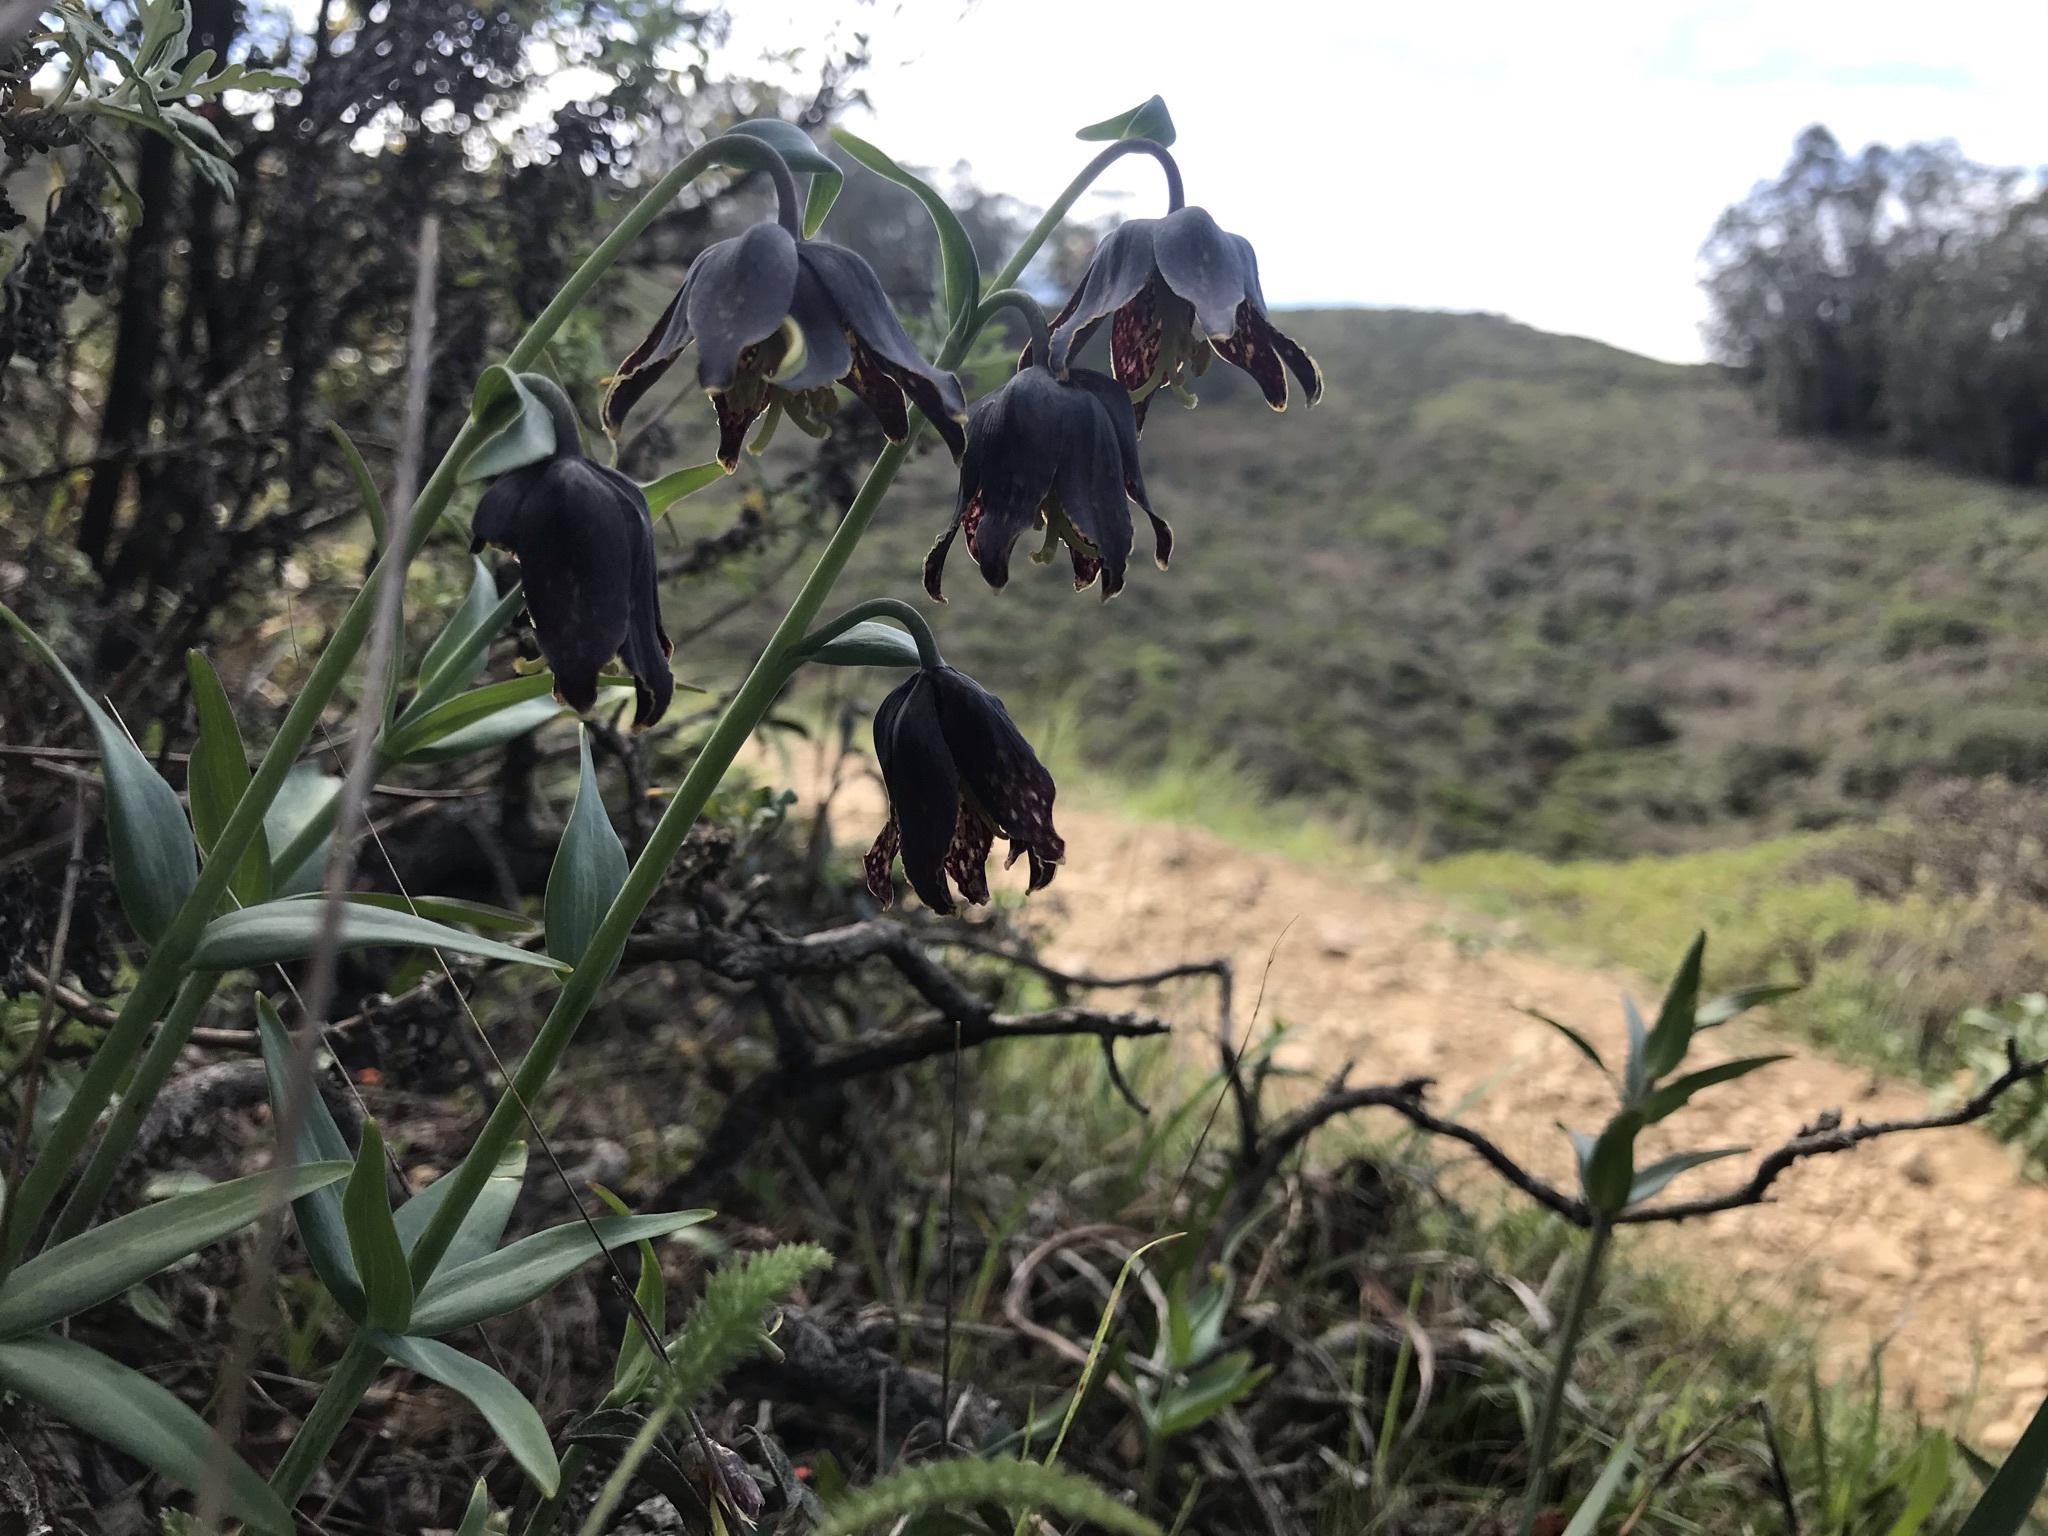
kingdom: Plantae
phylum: Tracheophyta
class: Liliopsida
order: Liliales
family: Liliaceae
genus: Fritillaria
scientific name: Fritillaria affinis
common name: Ojai fritillary
